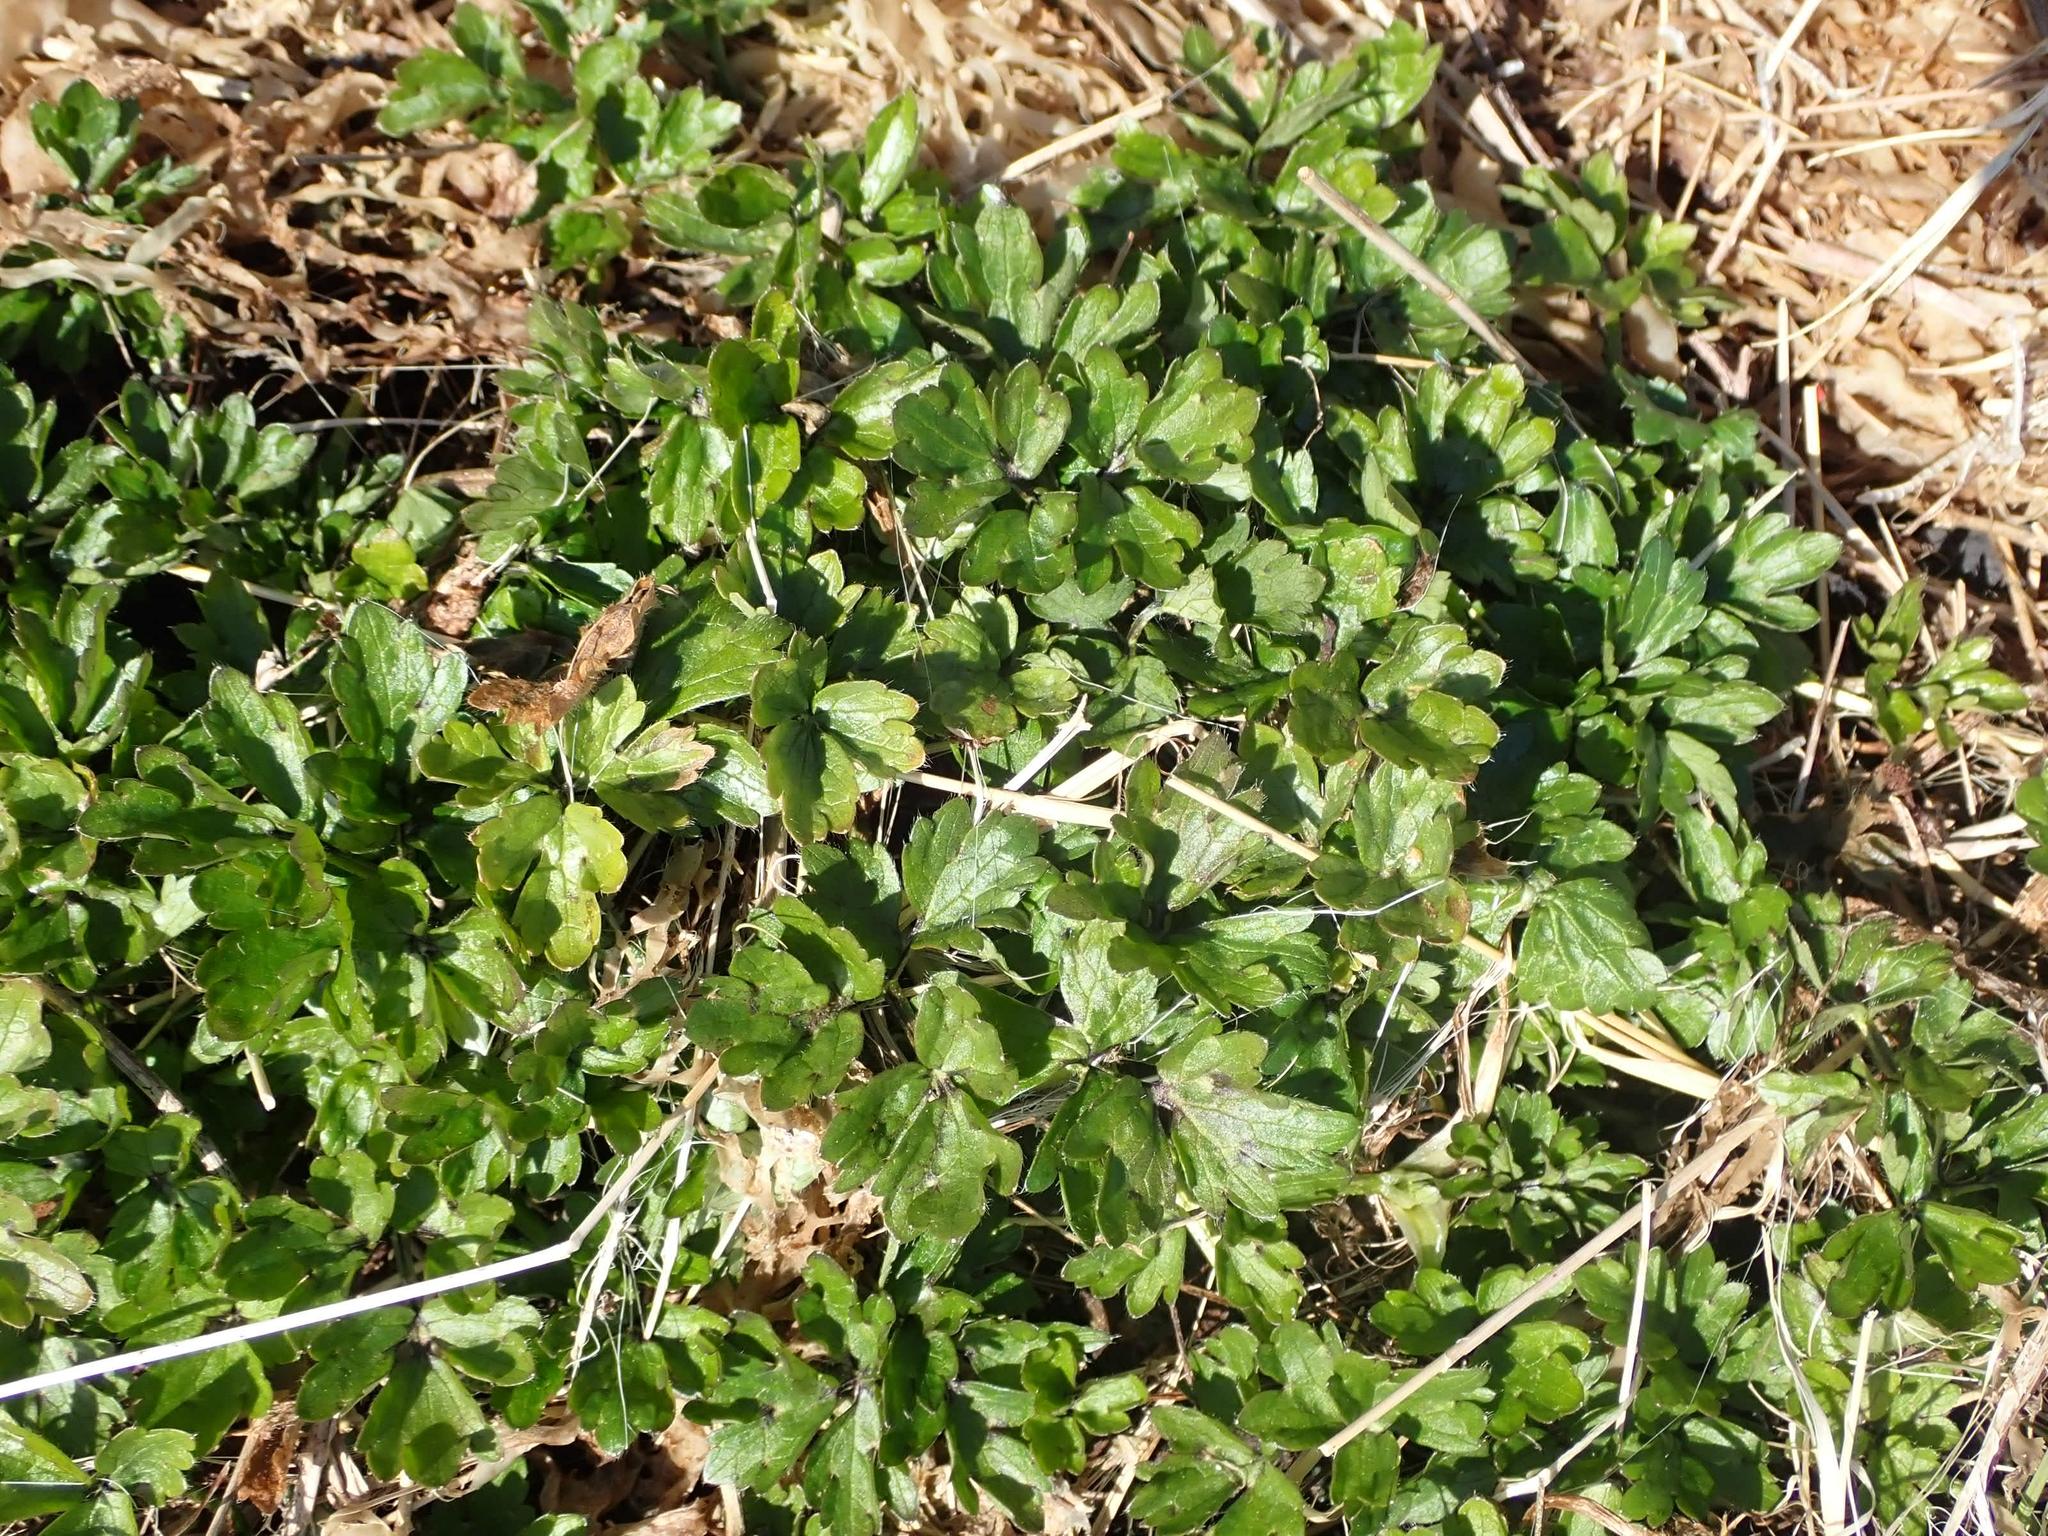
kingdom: Plantae
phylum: Tracheophyta
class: Magnoliopsida
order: Ranunculales
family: Ranunculaceae
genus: Ranunculus
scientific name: Ranunculus repens
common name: Creeping buttercup
